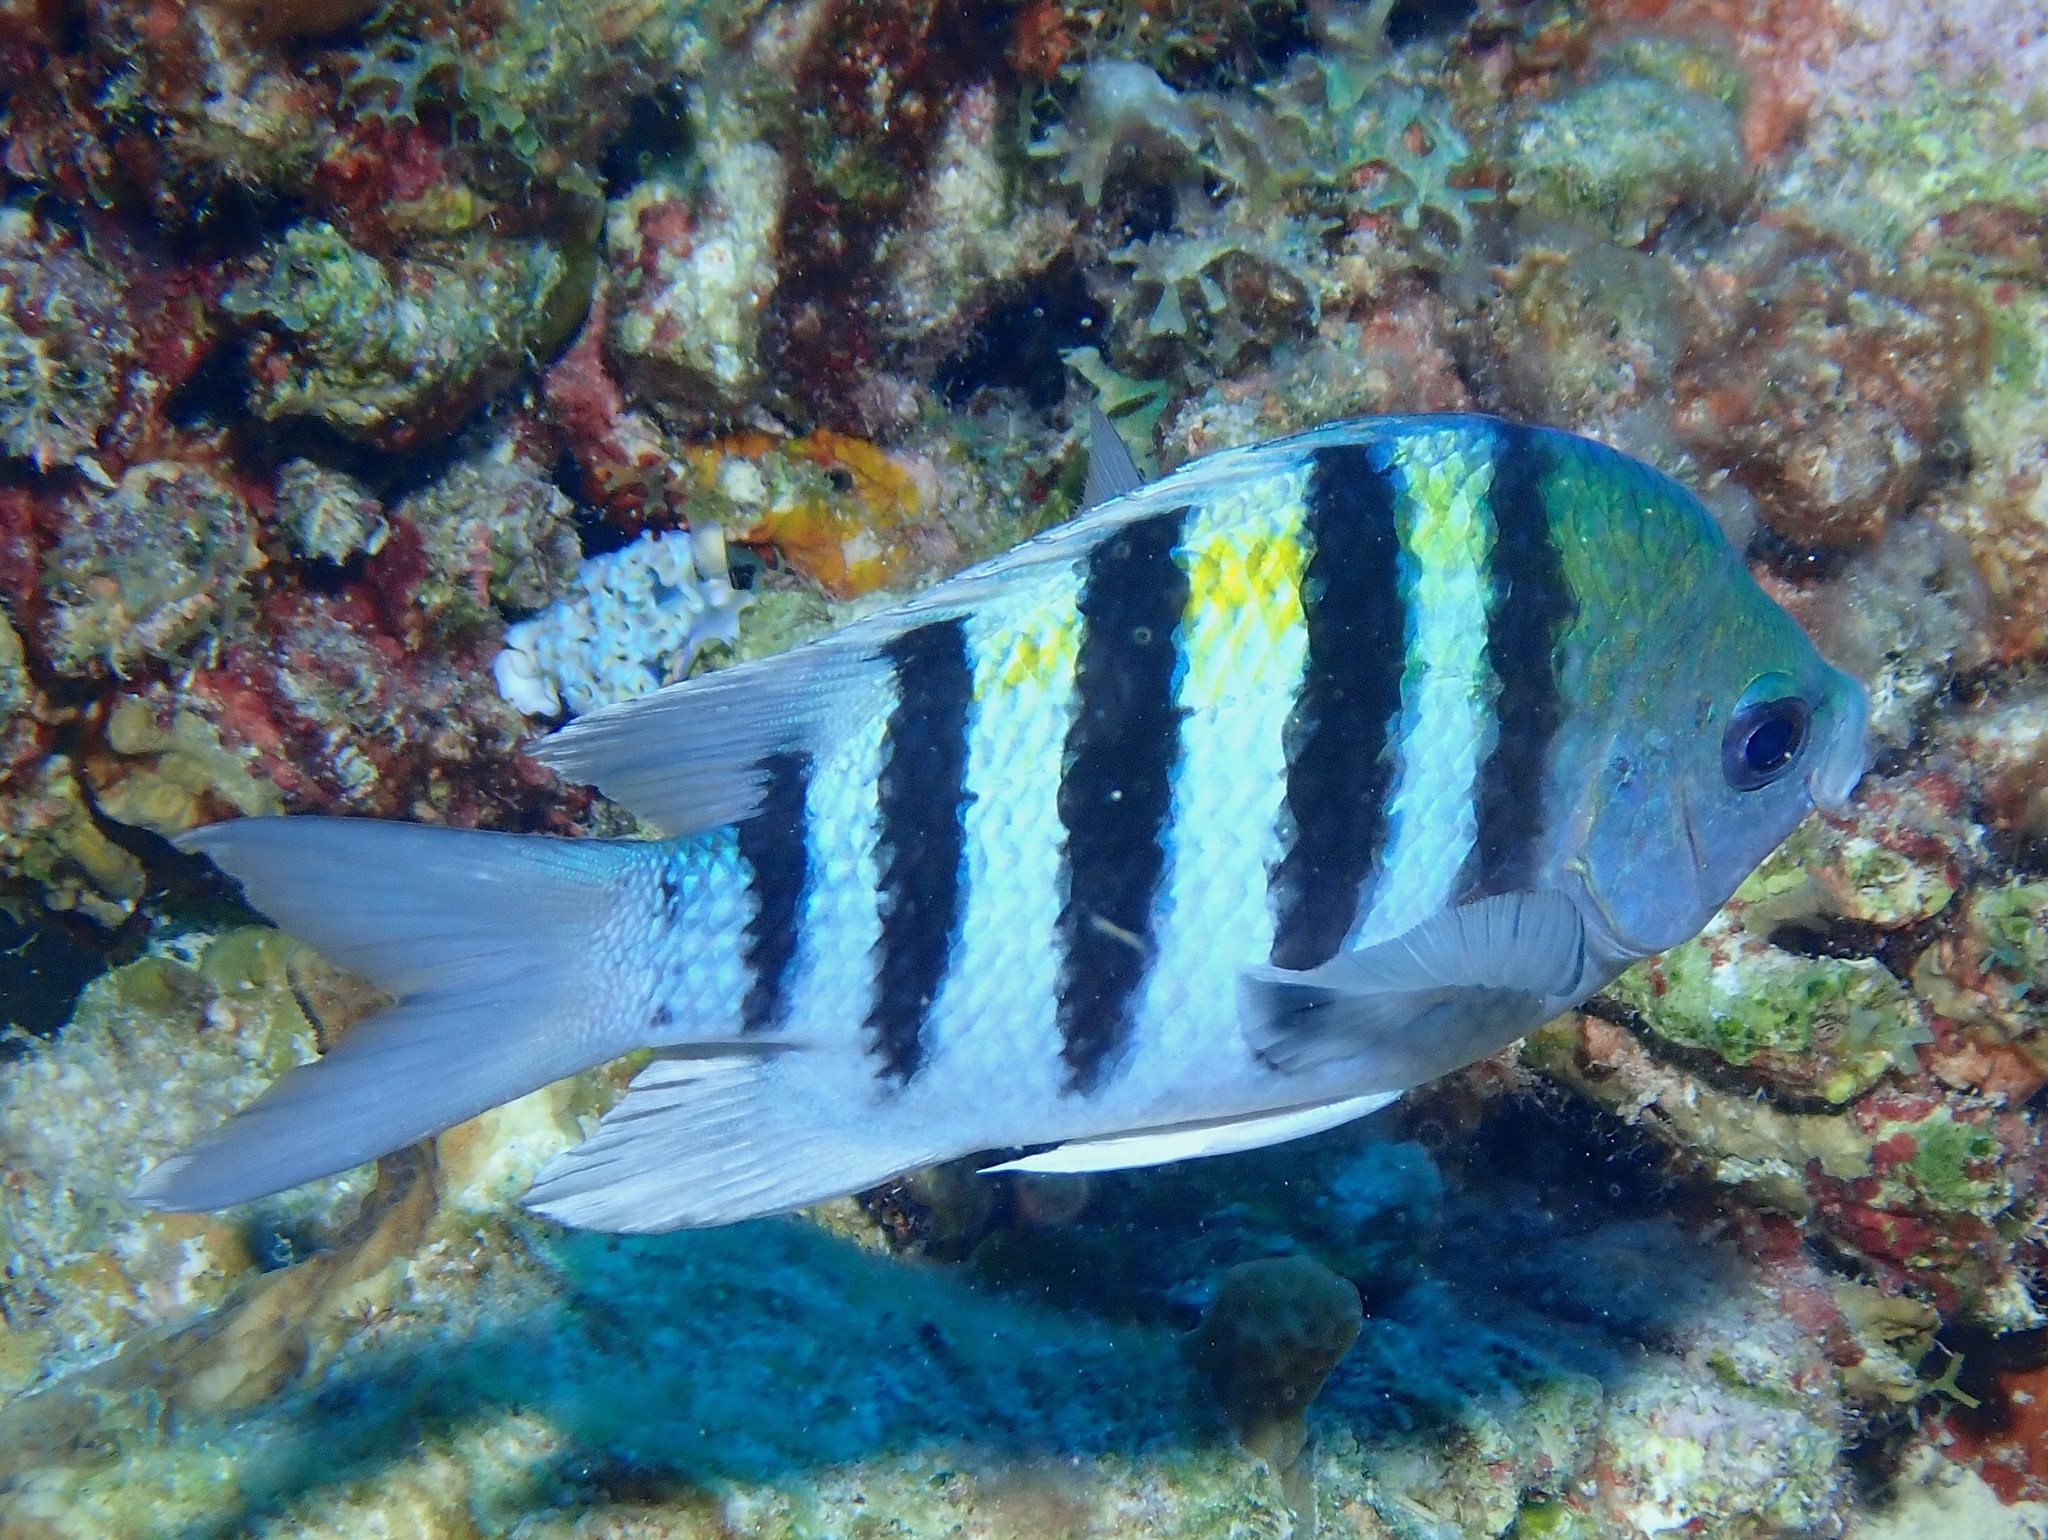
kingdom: Animalia
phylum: Chordata
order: Perciformes
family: Pomacentridae
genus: Abudefduf
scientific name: Abudefduf saxatilis
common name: Sergeant major
